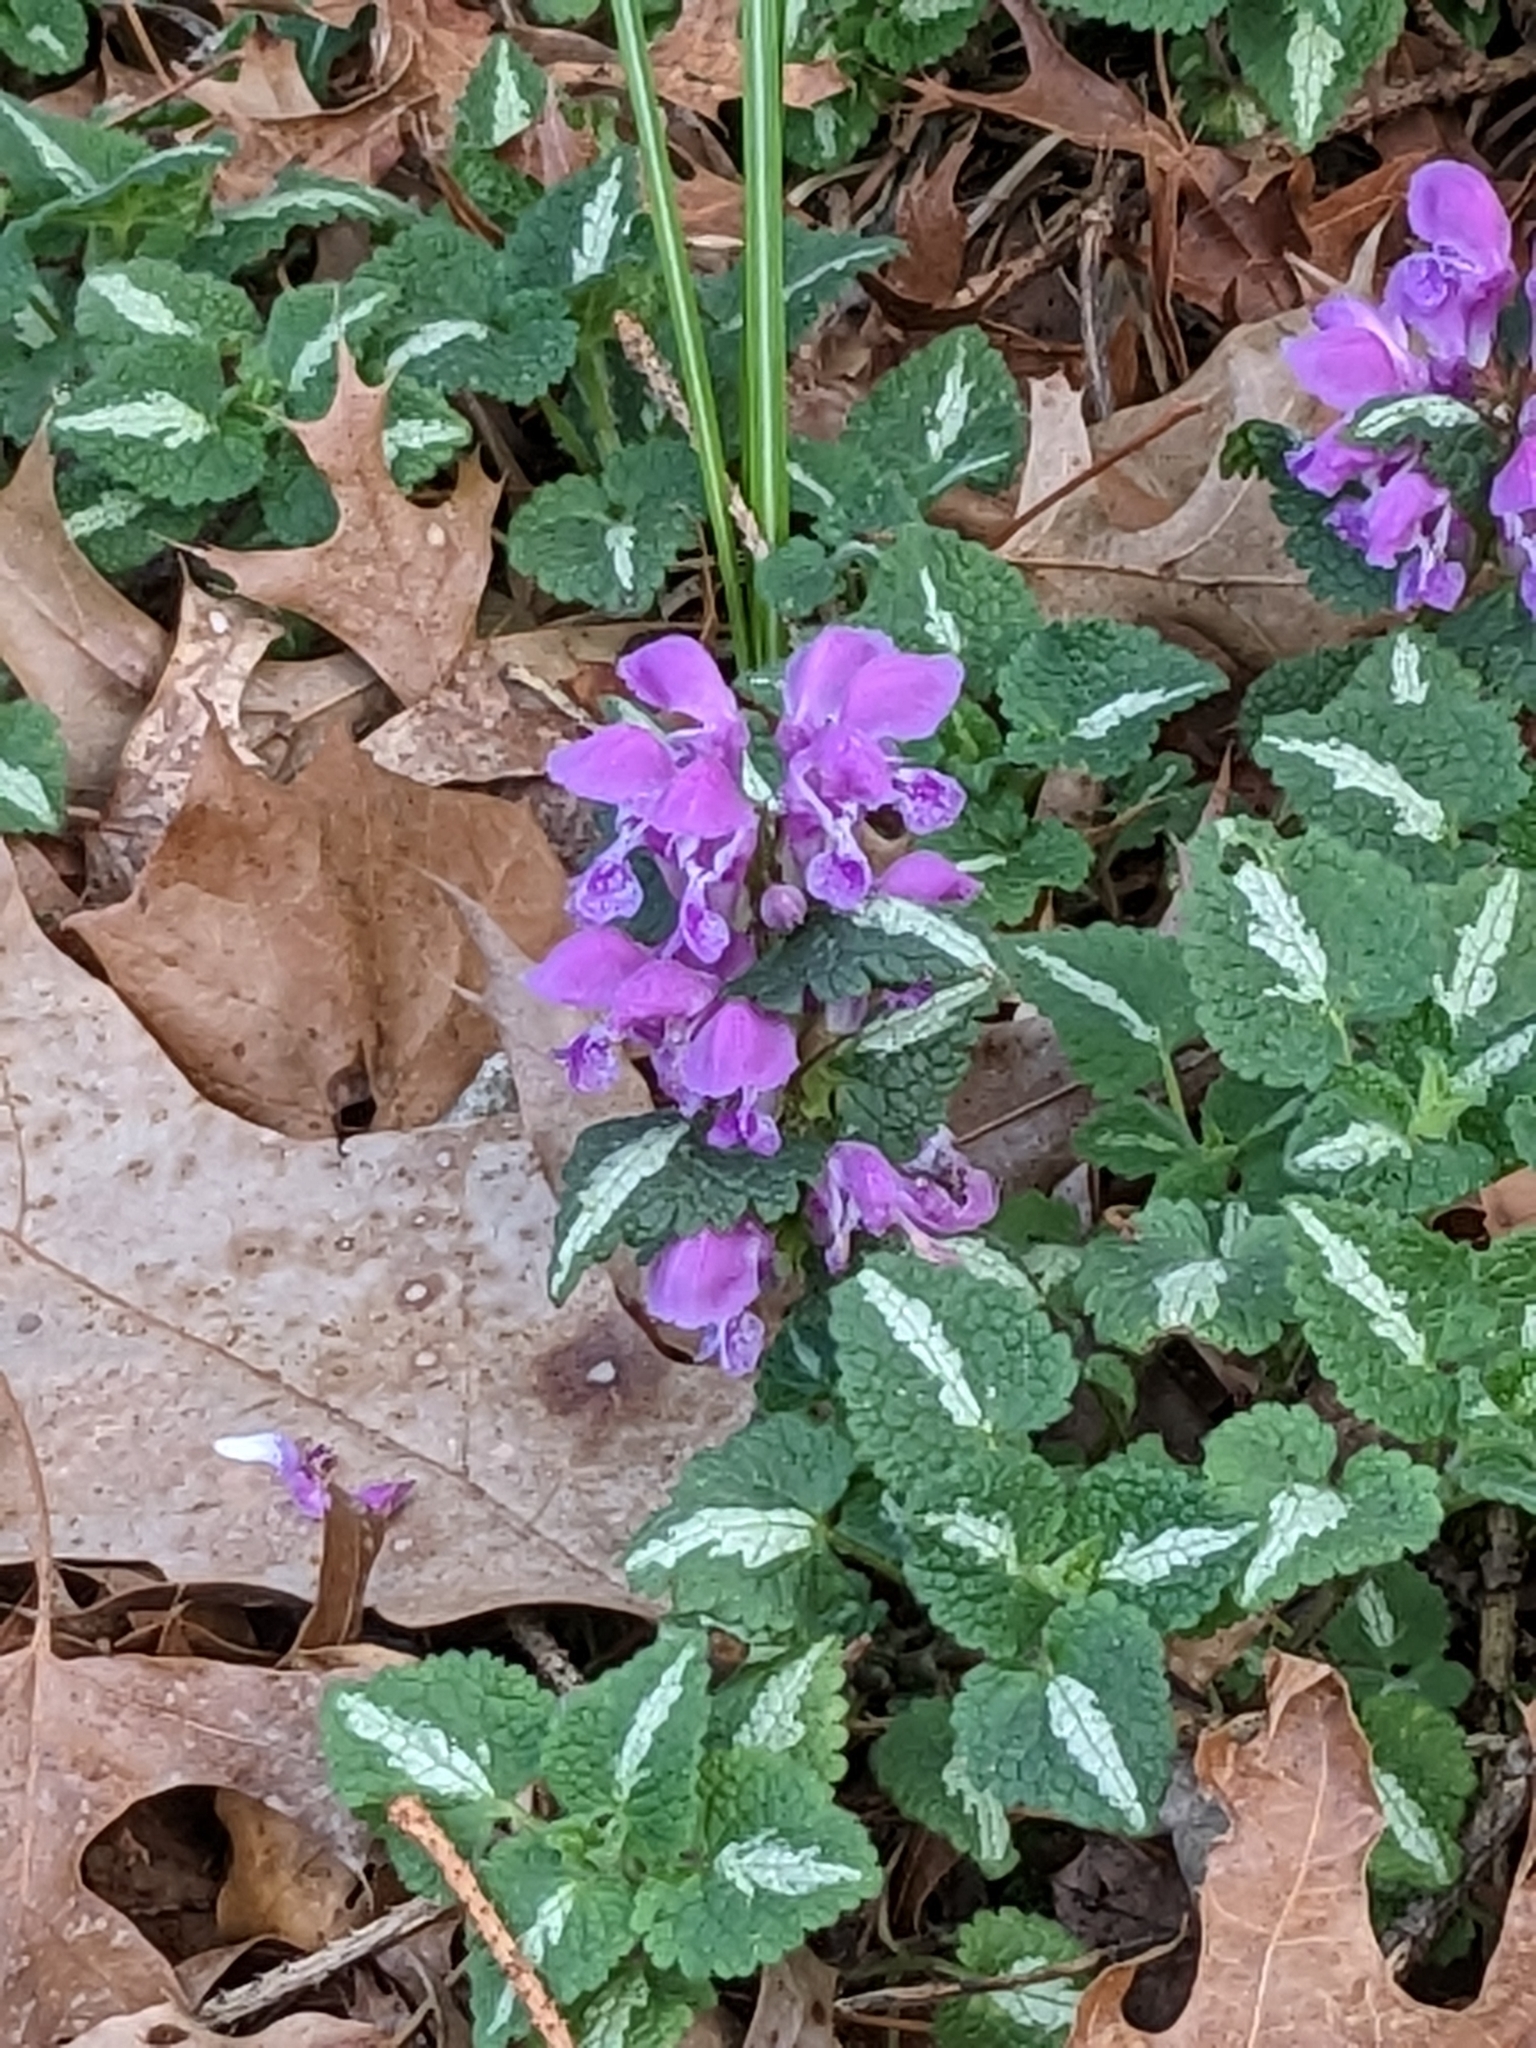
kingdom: Plantae
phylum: Tracheophyta
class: Magnoliopsida
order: Lamiales
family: Lamiaceae
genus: Lamium
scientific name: Lamium maculatum
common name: Spotted dead-nettle
